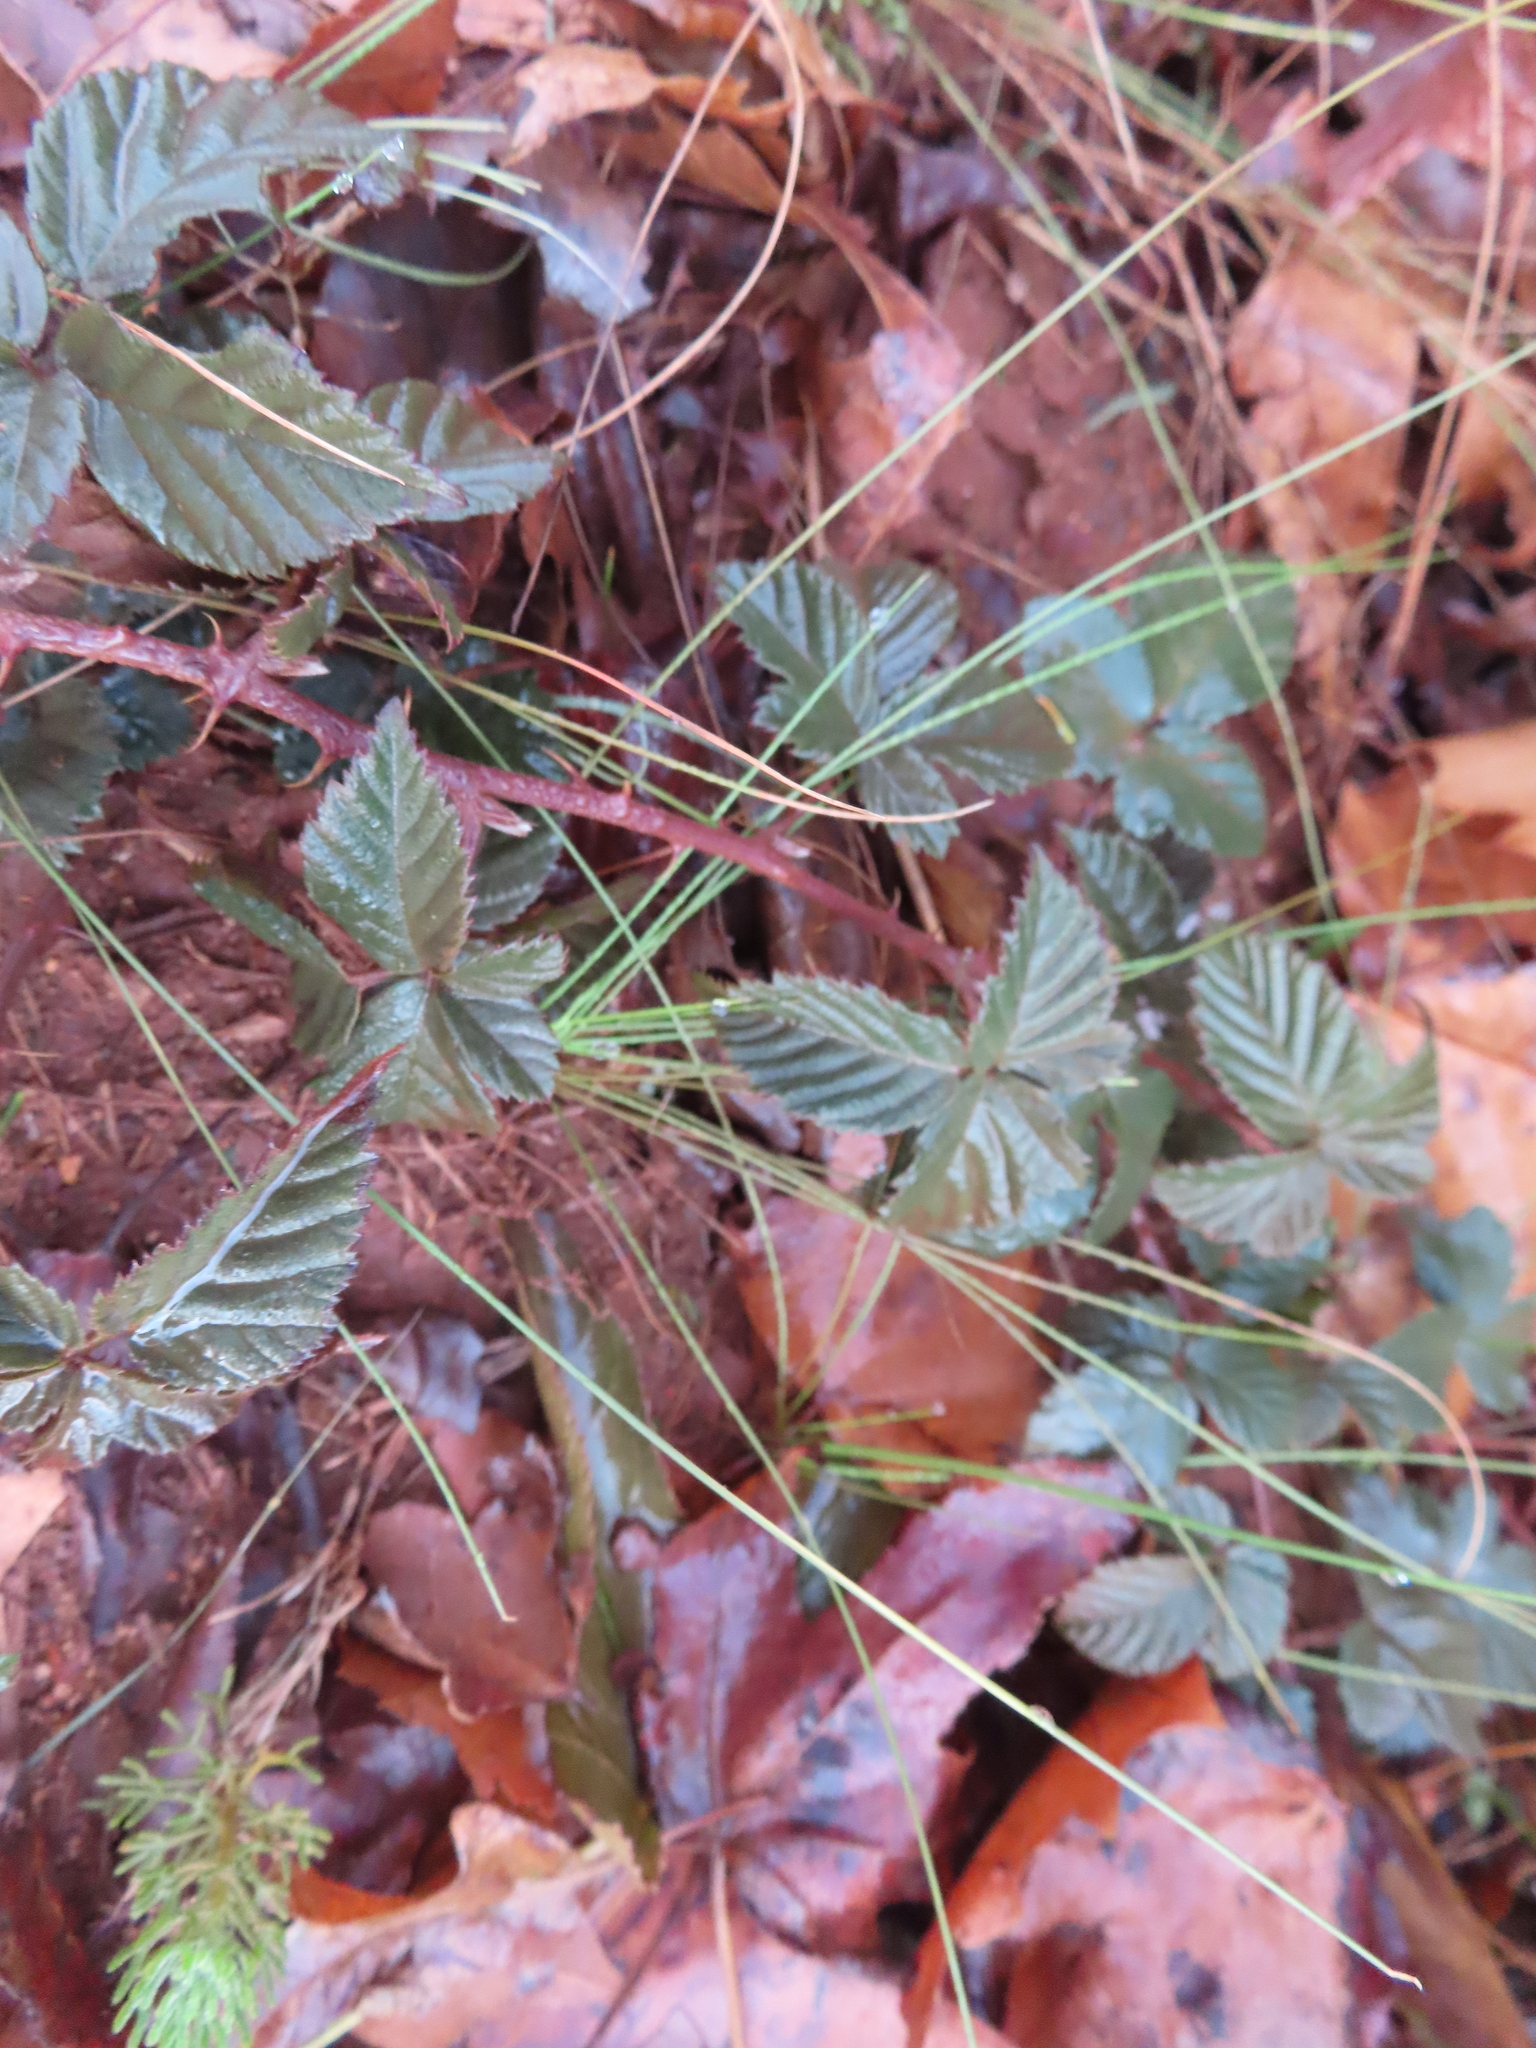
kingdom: Plantae
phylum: Tracheophyta
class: Magnoliopsida
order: Rosales
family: Rosaceae
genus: Rubus
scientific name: Rubus affinis
